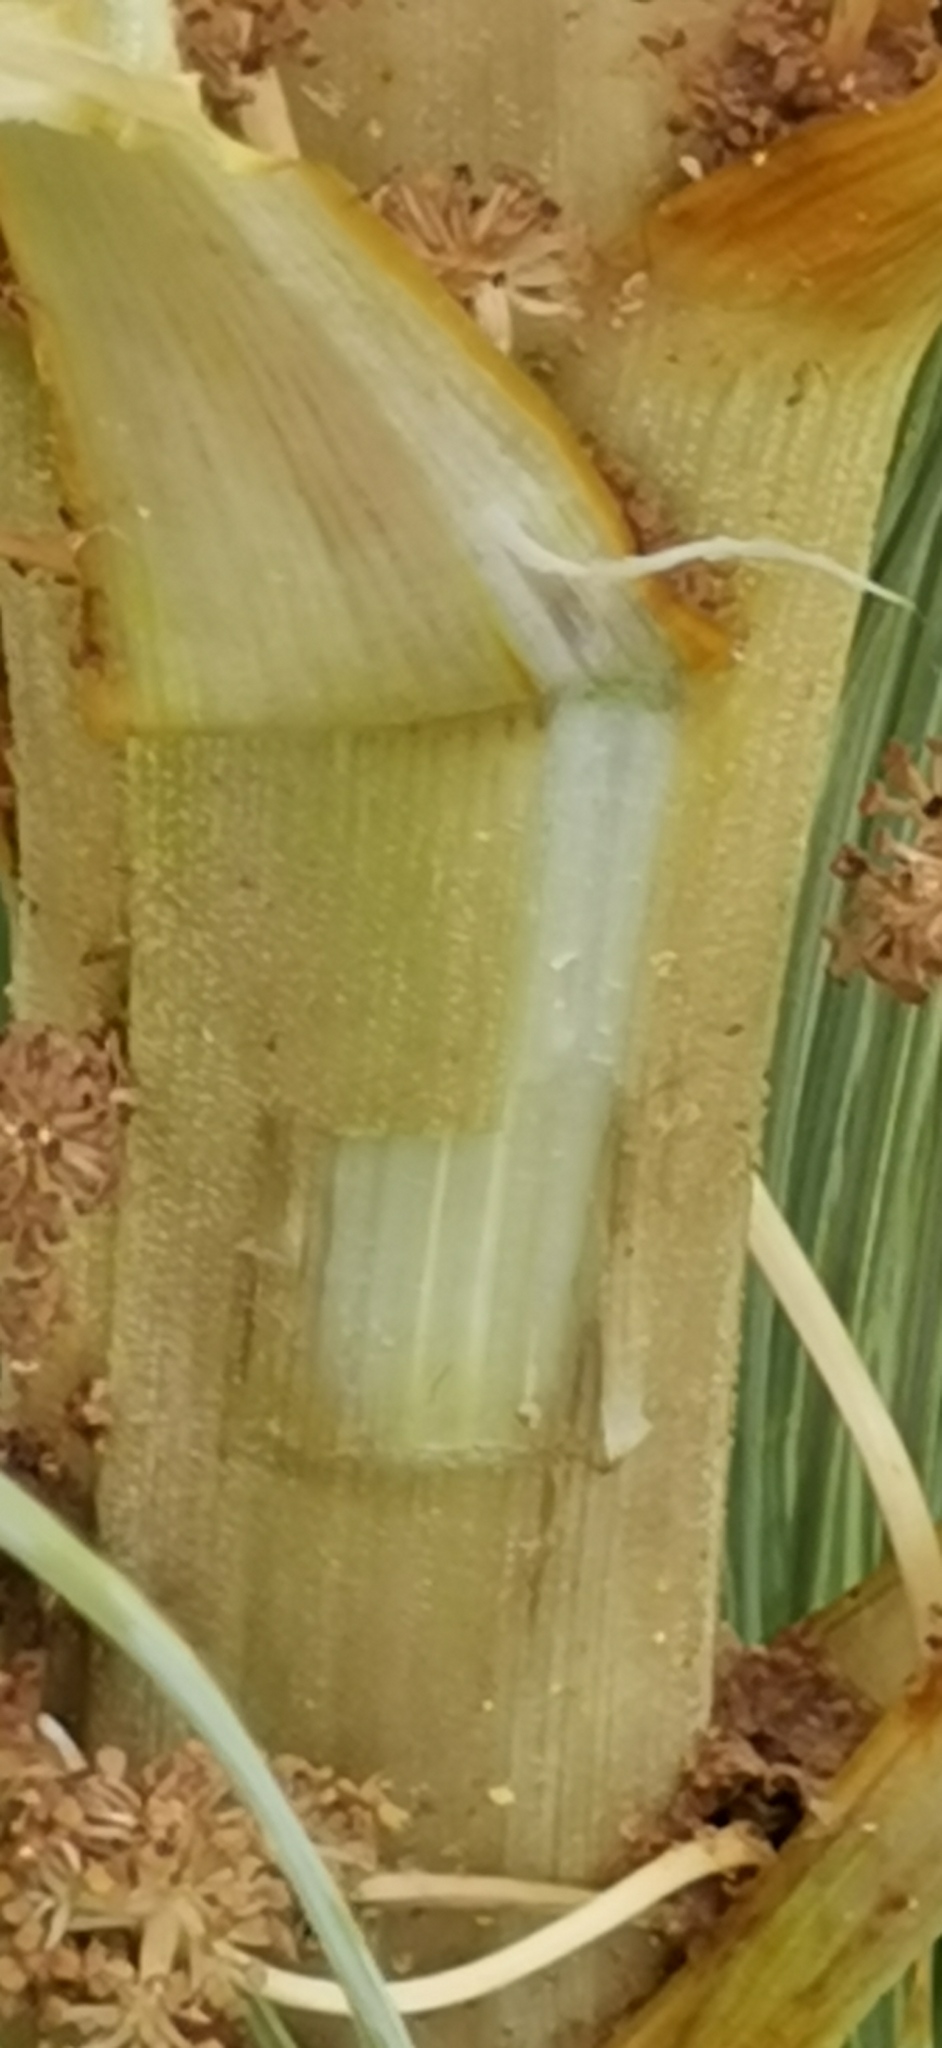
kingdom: Plantae
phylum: Tracheophyta
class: Magnoliopsida
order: Apiales
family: Apiaceae
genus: Aciphylla
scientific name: Aciphylla subflabellata
